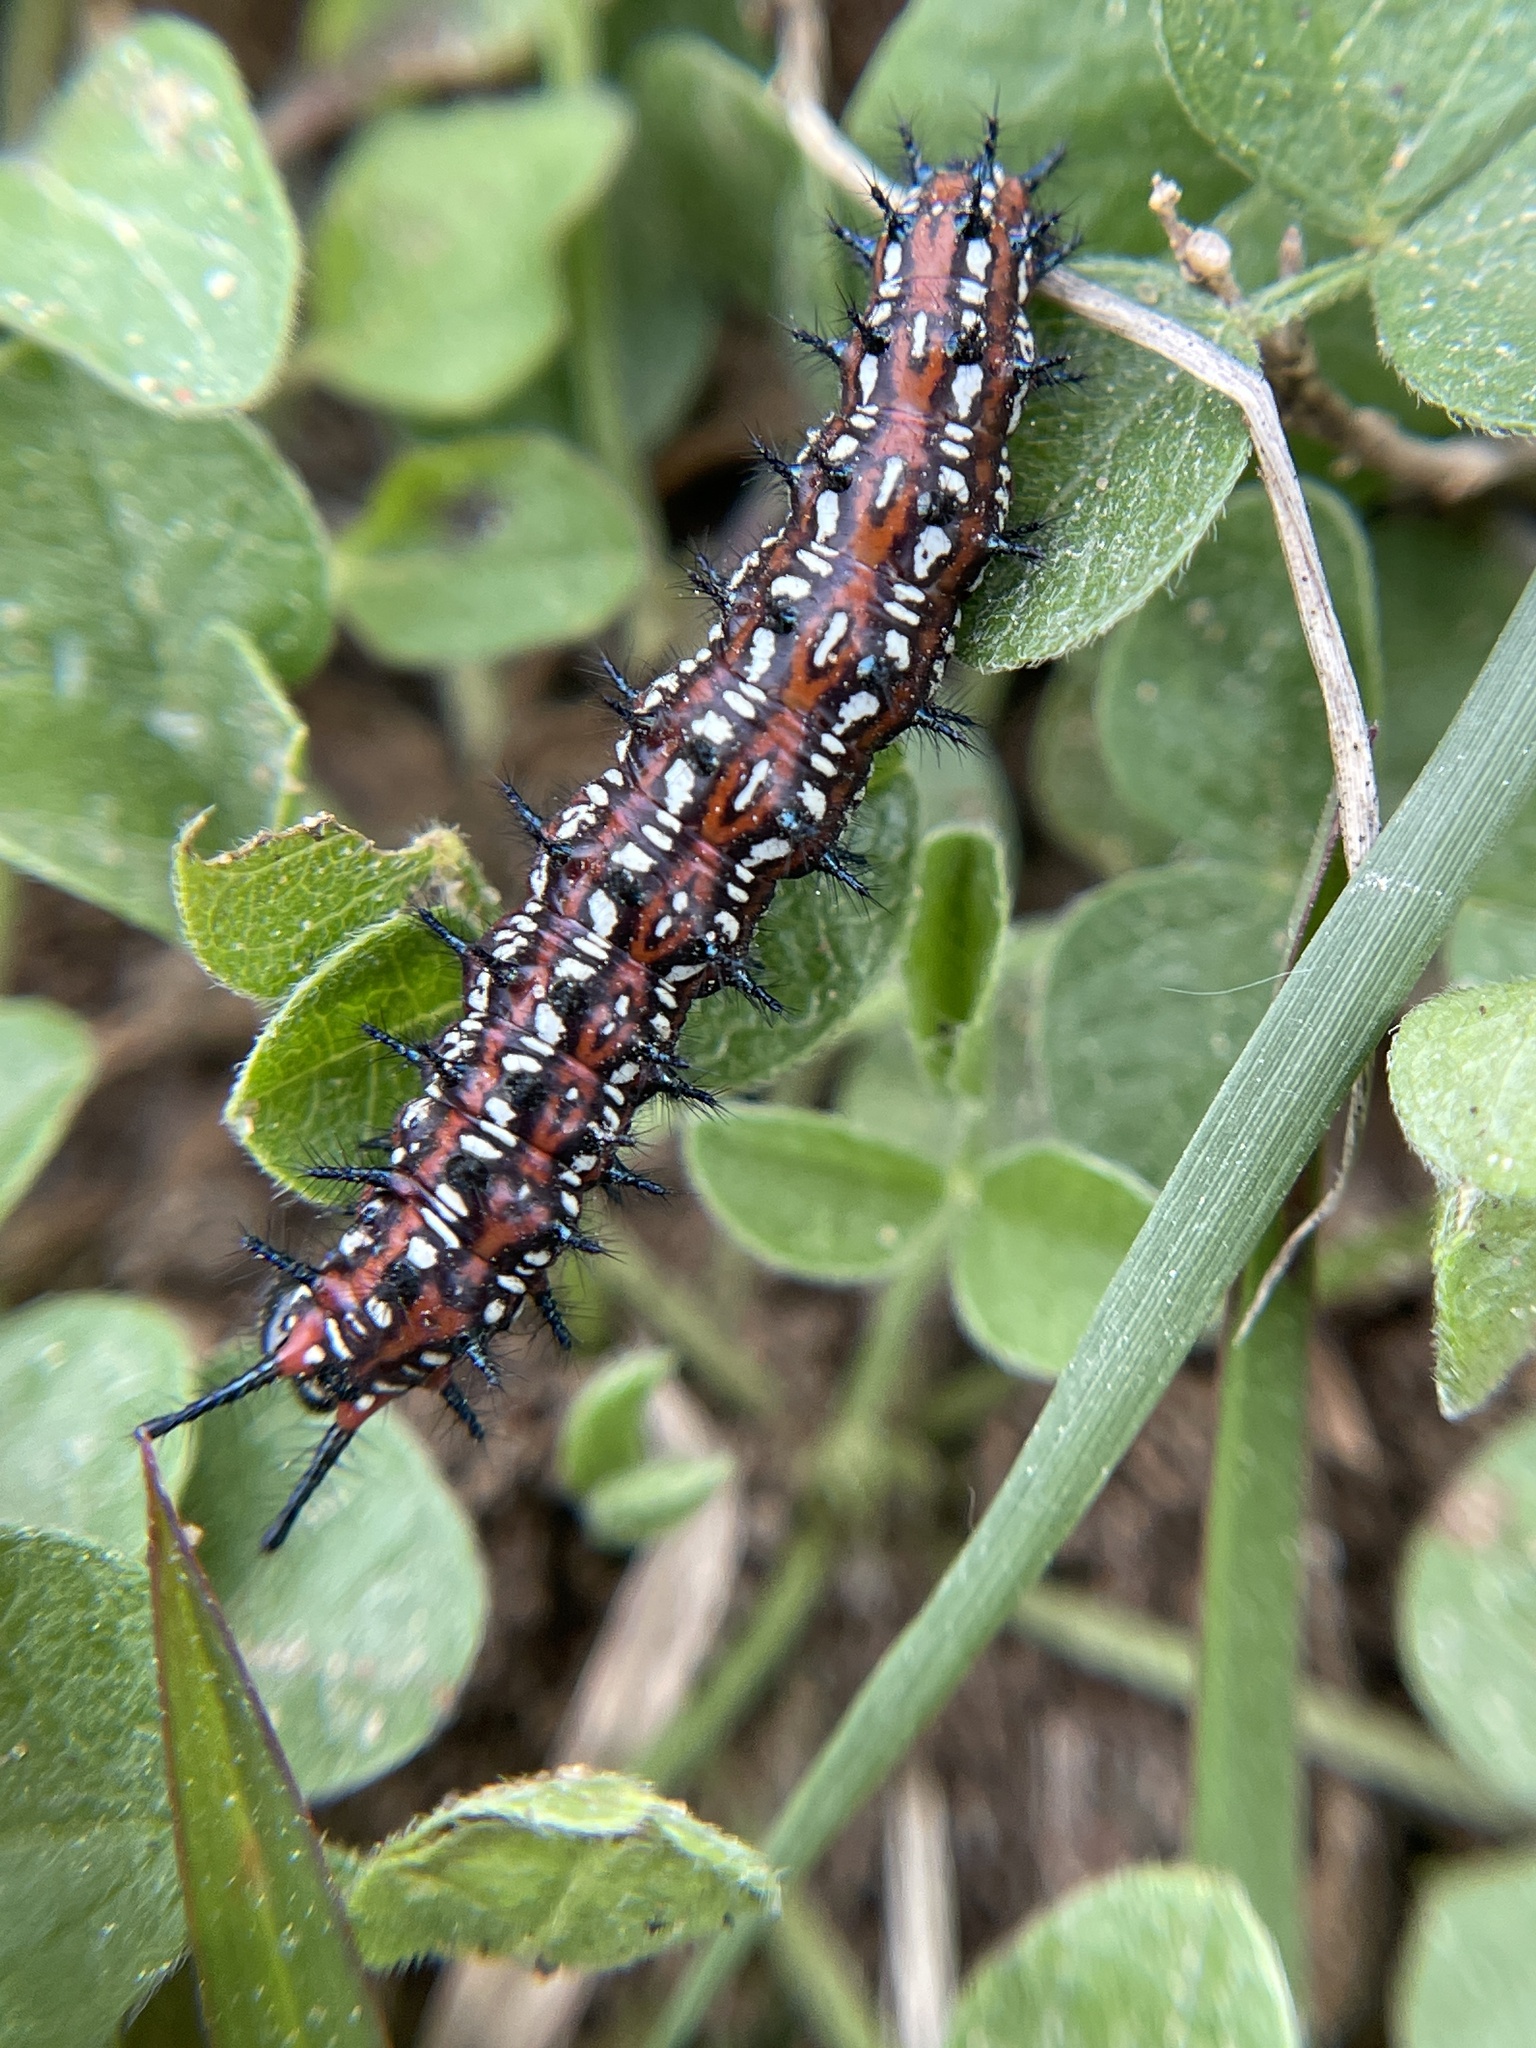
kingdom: Animalia
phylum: Arthropoda
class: Insecta
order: Lepidoptera
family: Nymphalidae
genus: Euptoieta
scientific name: Euptoieta claudia
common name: Variegated fritillary
